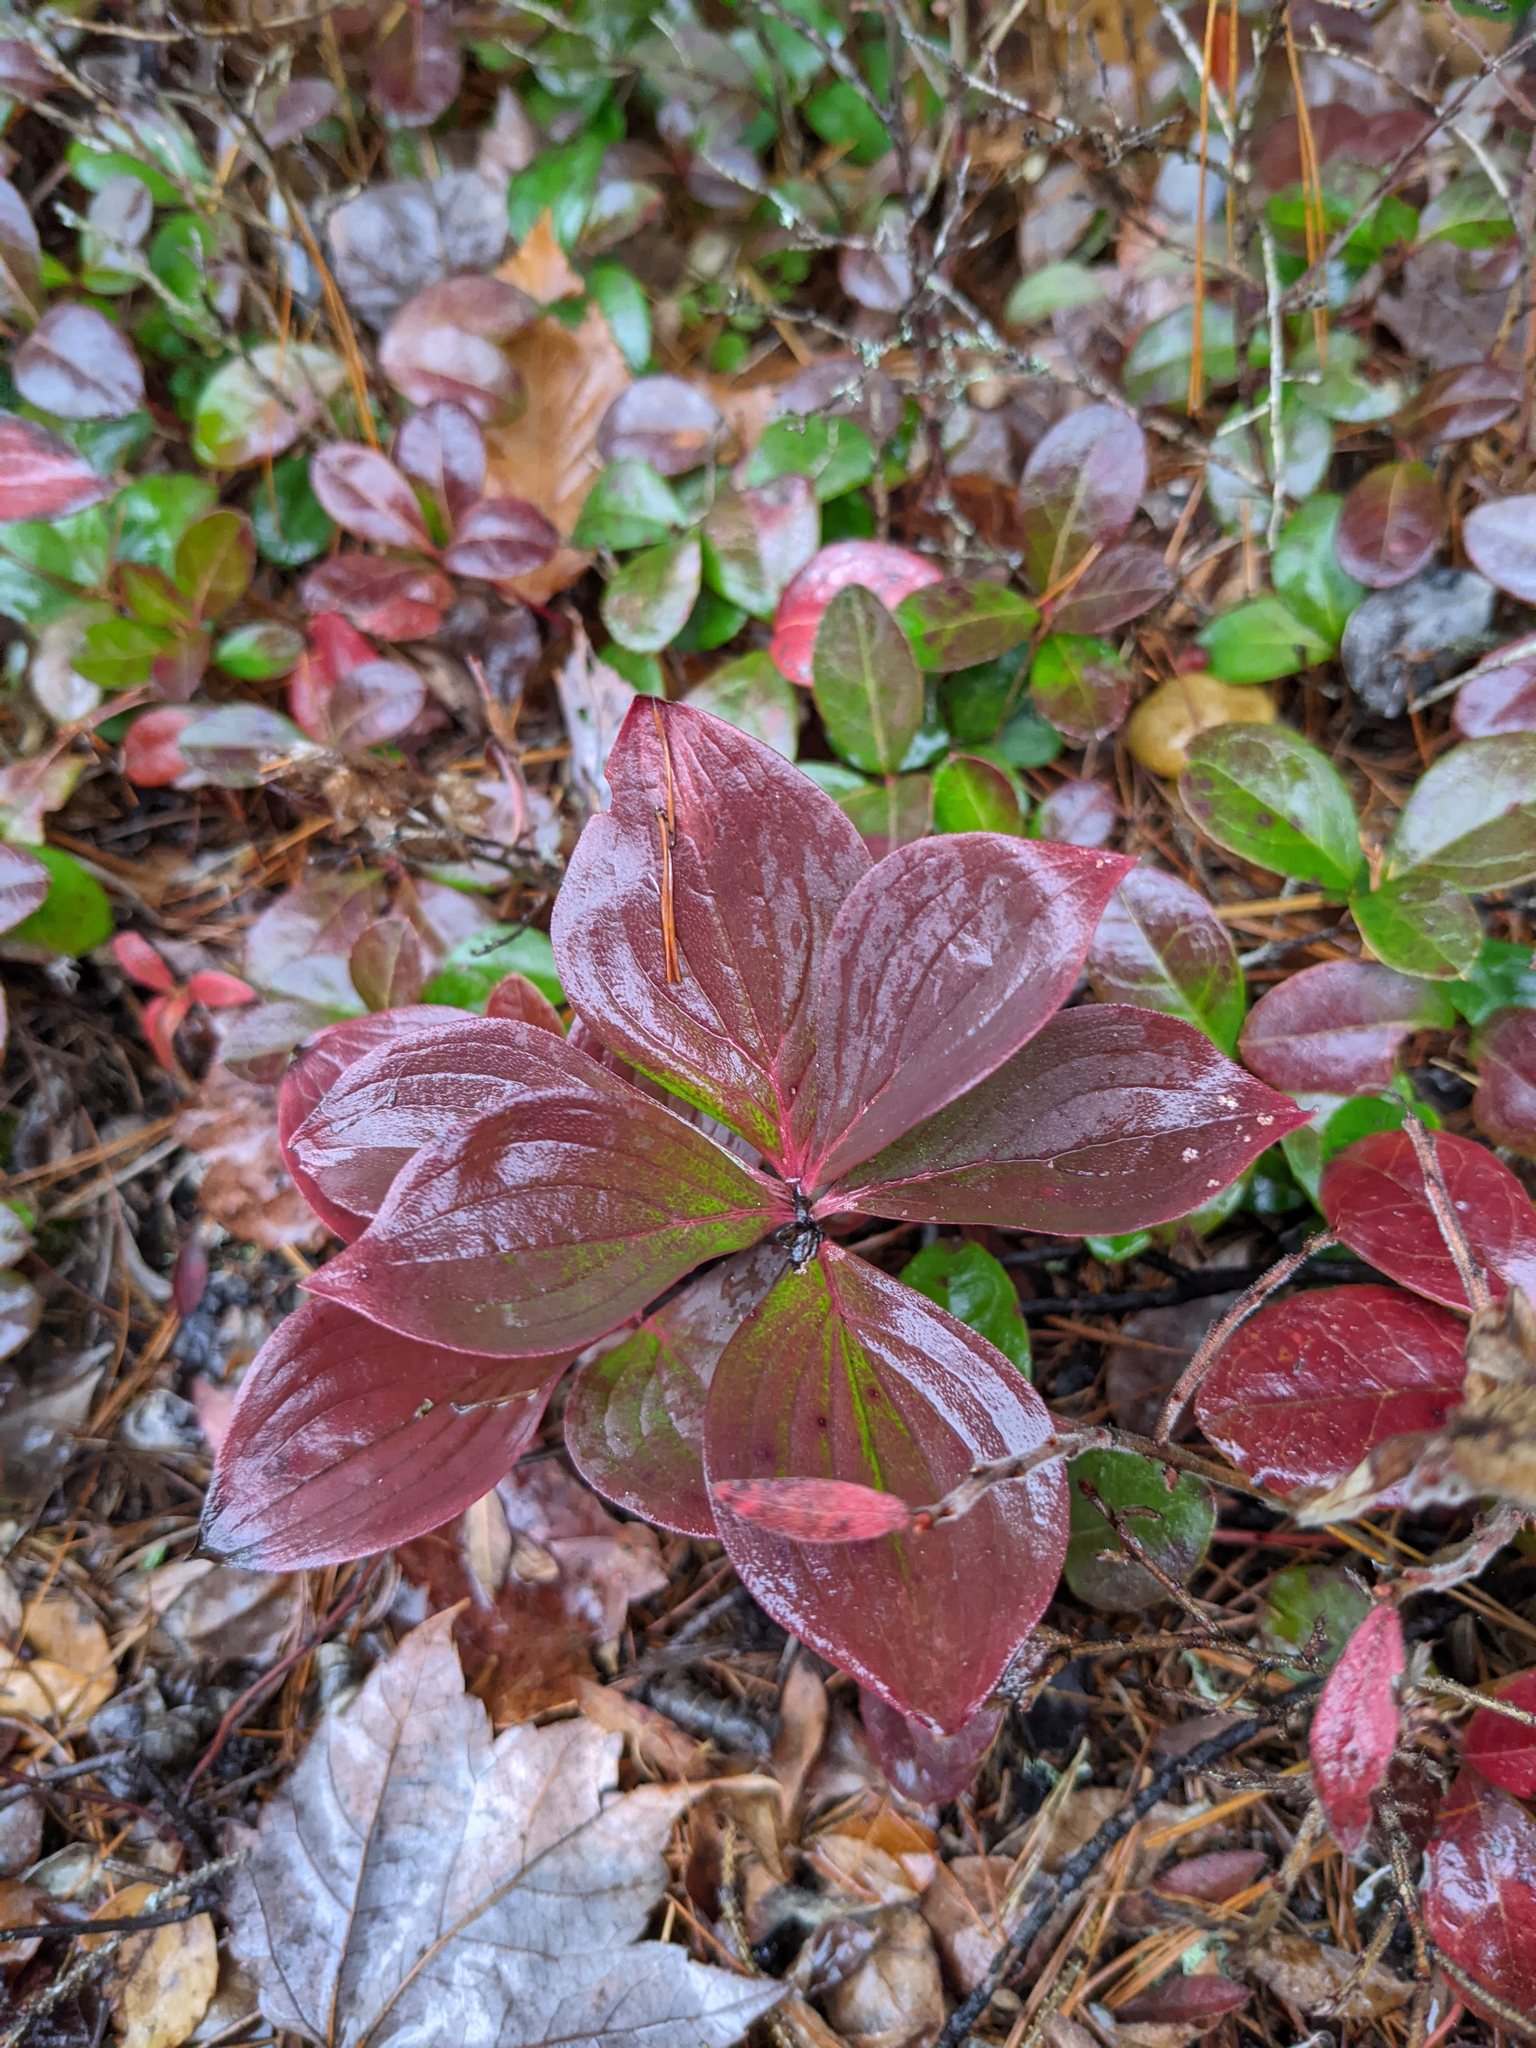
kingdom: Plantae
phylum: Tracheophyta
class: Magnoliopsida
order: Cornales
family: Cornaceae
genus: Cornus
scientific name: Cornus canadensis
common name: Creeping dogwood
